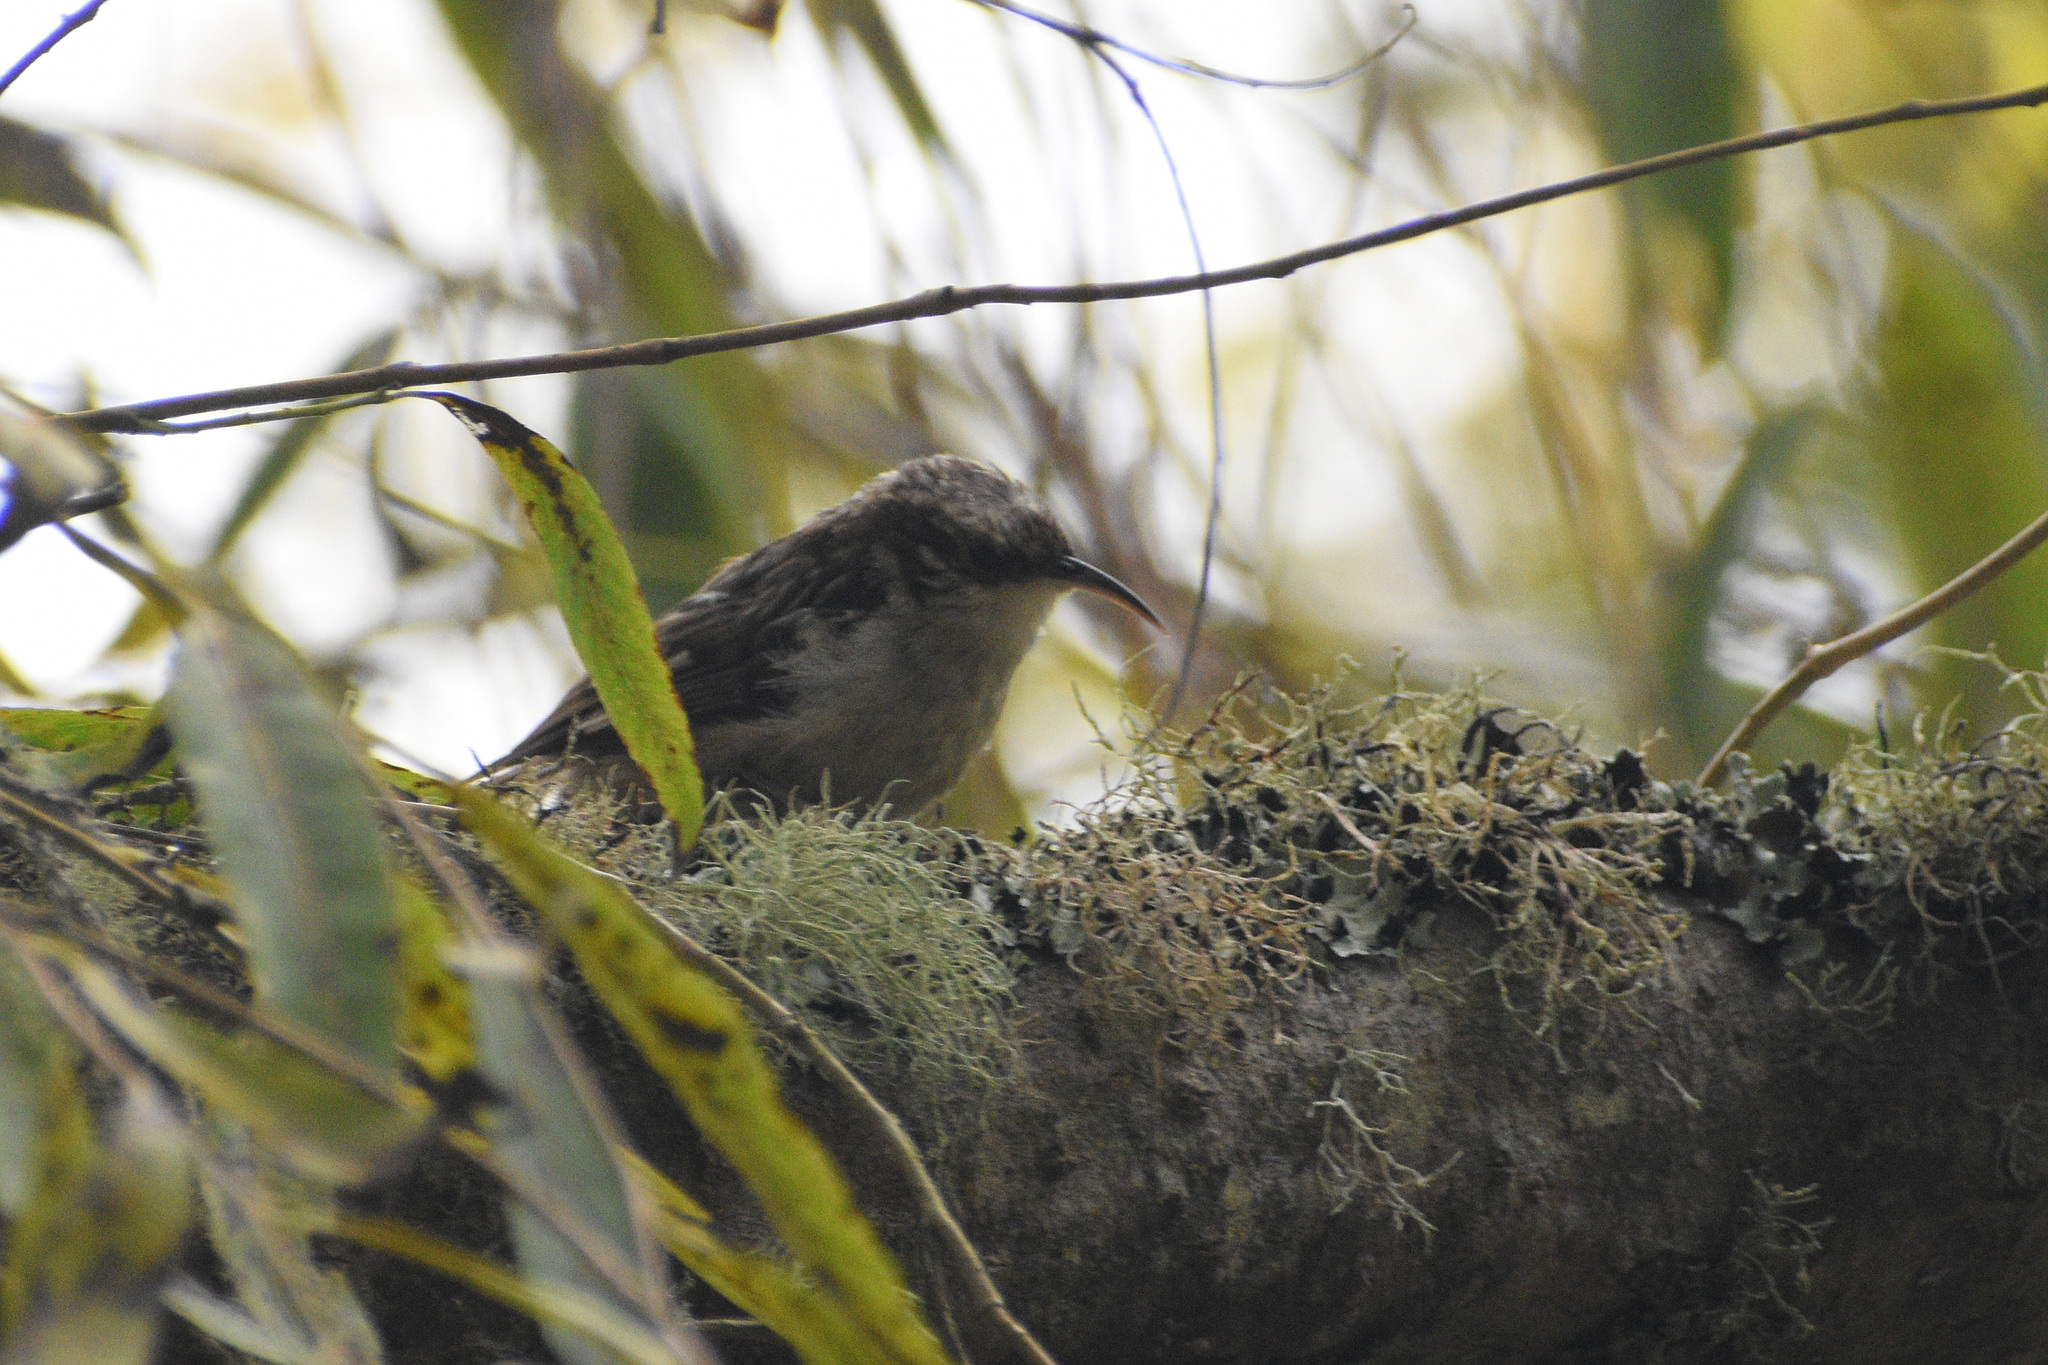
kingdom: Animalia
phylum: Chordata
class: Aves
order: Passeriformes
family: Certhiidae
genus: Certhia
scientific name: Certhia americana
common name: Brown creeper
